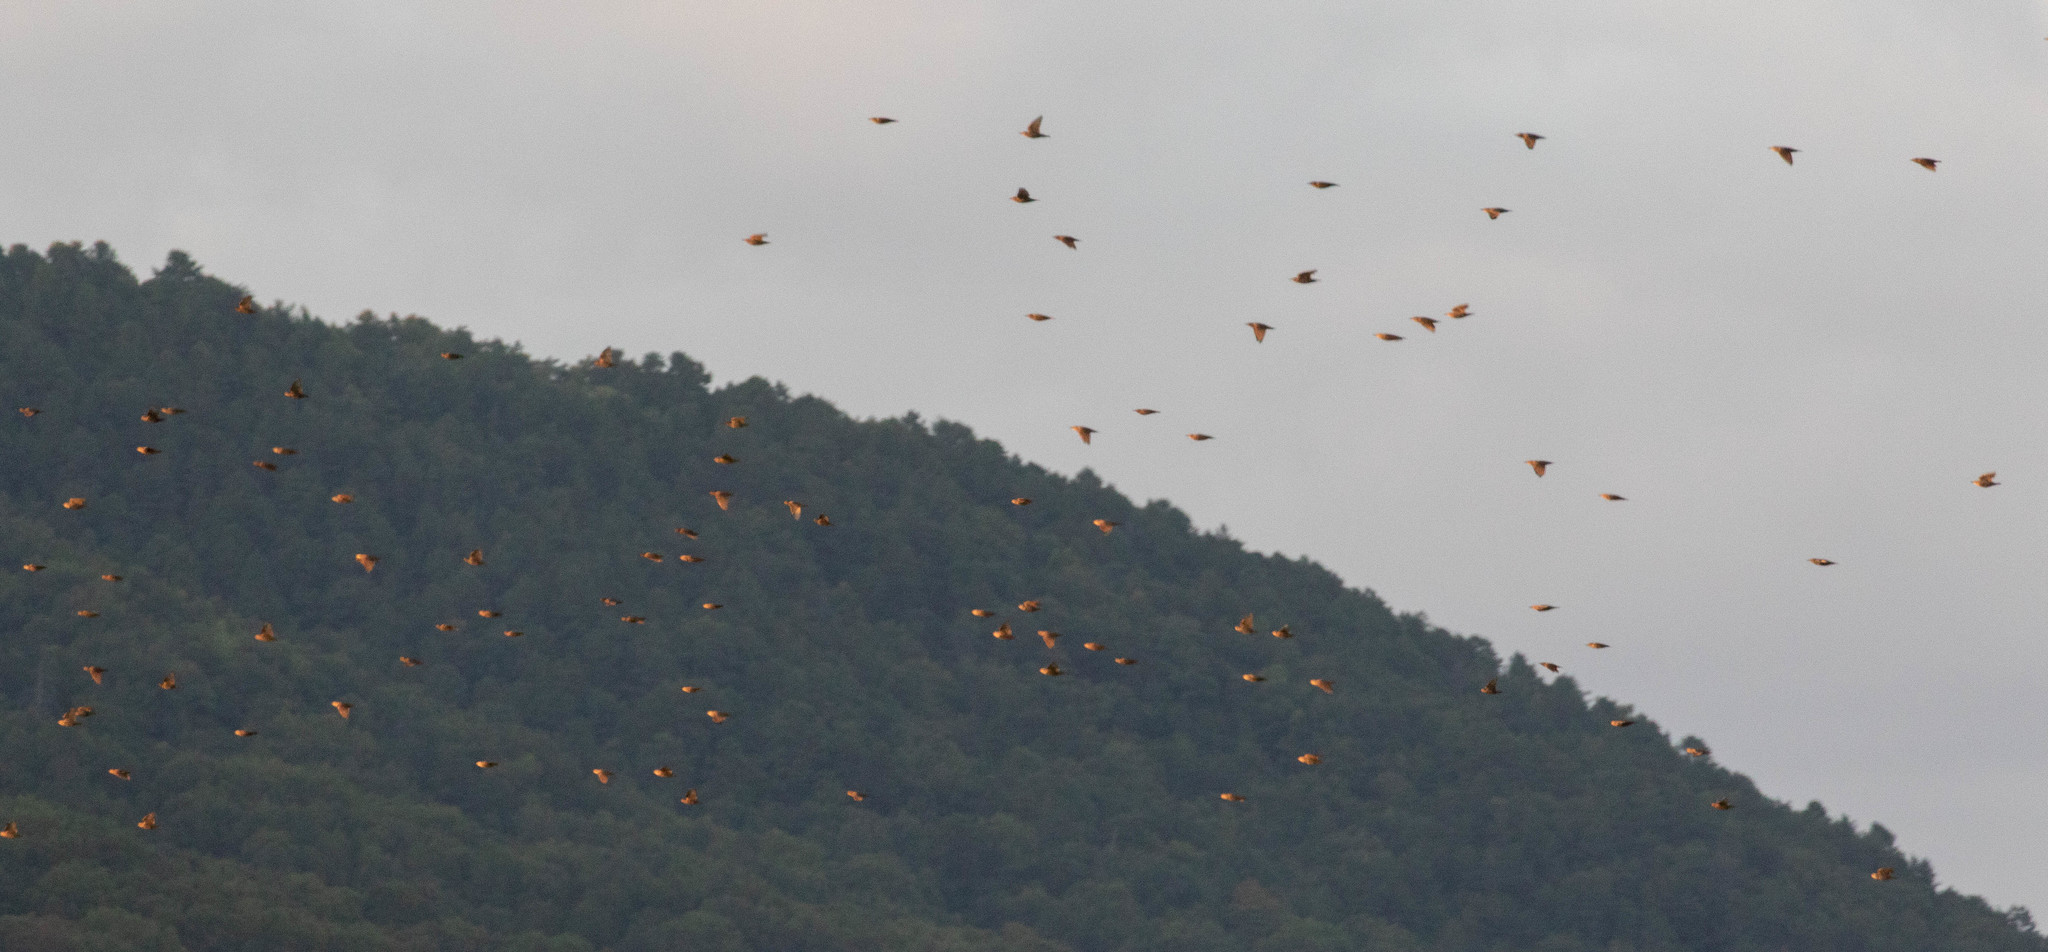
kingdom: Animalia
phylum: Chordata
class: Aves
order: Passeriformes
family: Sturnidae
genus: Sturnus
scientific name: Sturnus vulgaris
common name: Common starling
